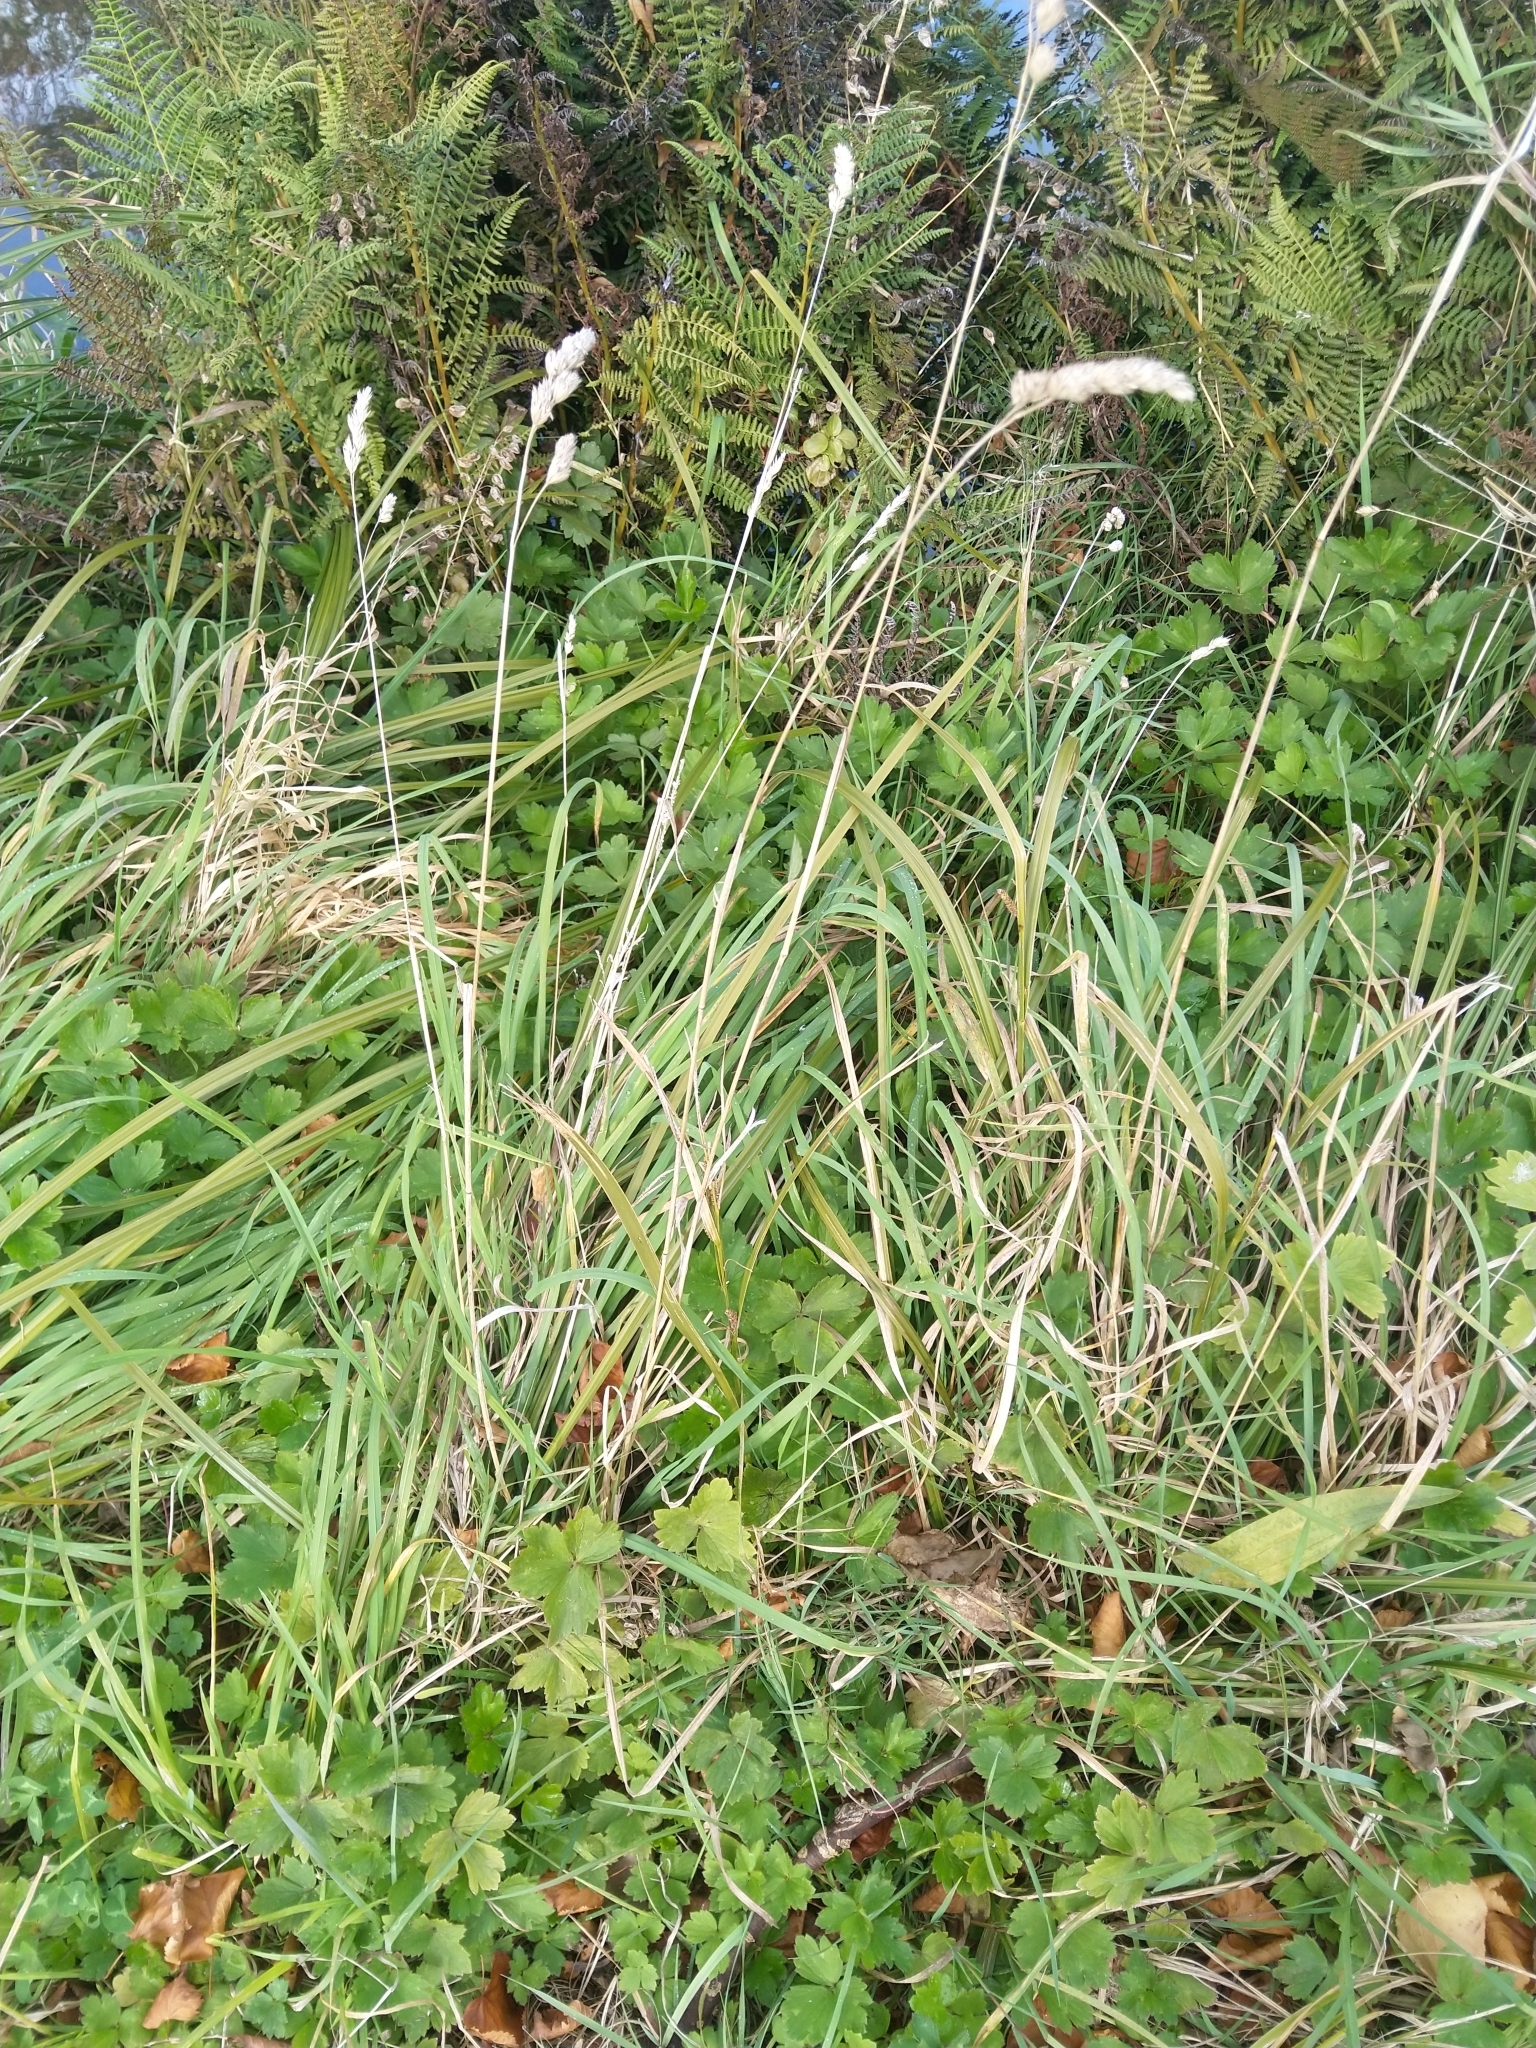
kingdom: Plantae
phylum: Tracheophyta
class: Liliopsida
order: Poales
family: Poaceae
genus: Dactylis
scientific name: Dactylis glomerata
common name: Orchardgrass
